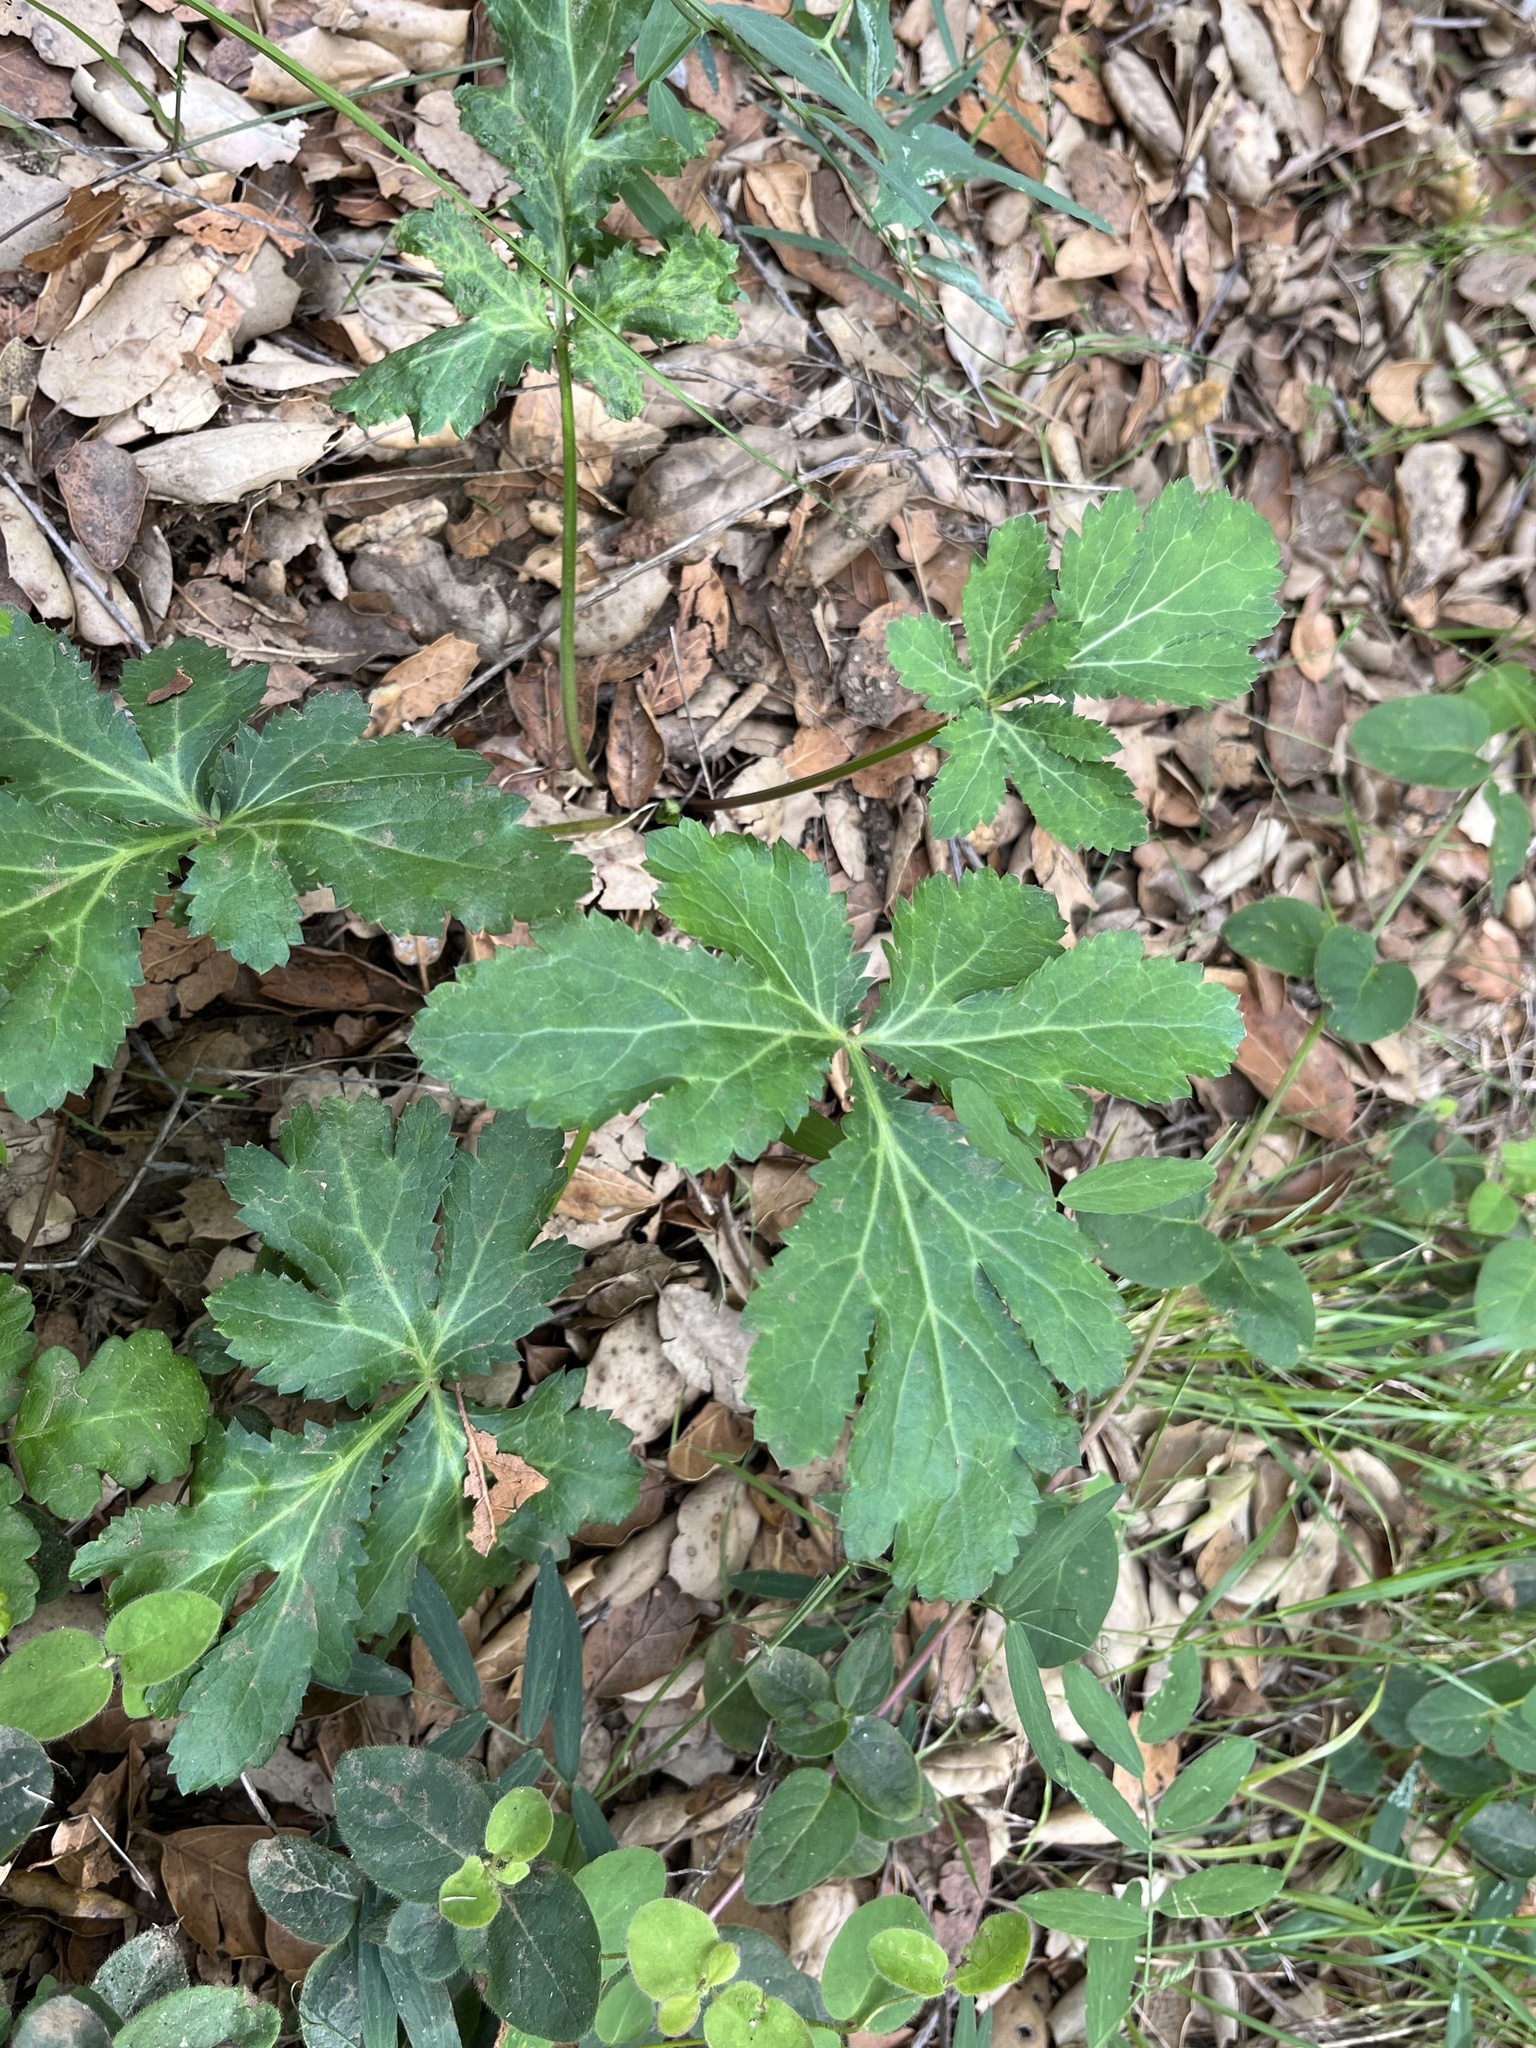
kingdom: Plantae
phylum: Tracheophyta
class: Magnoliopsida
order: Apiales
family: Apiaceae
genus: Sanicula
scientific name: Sanicula hoffmannii
